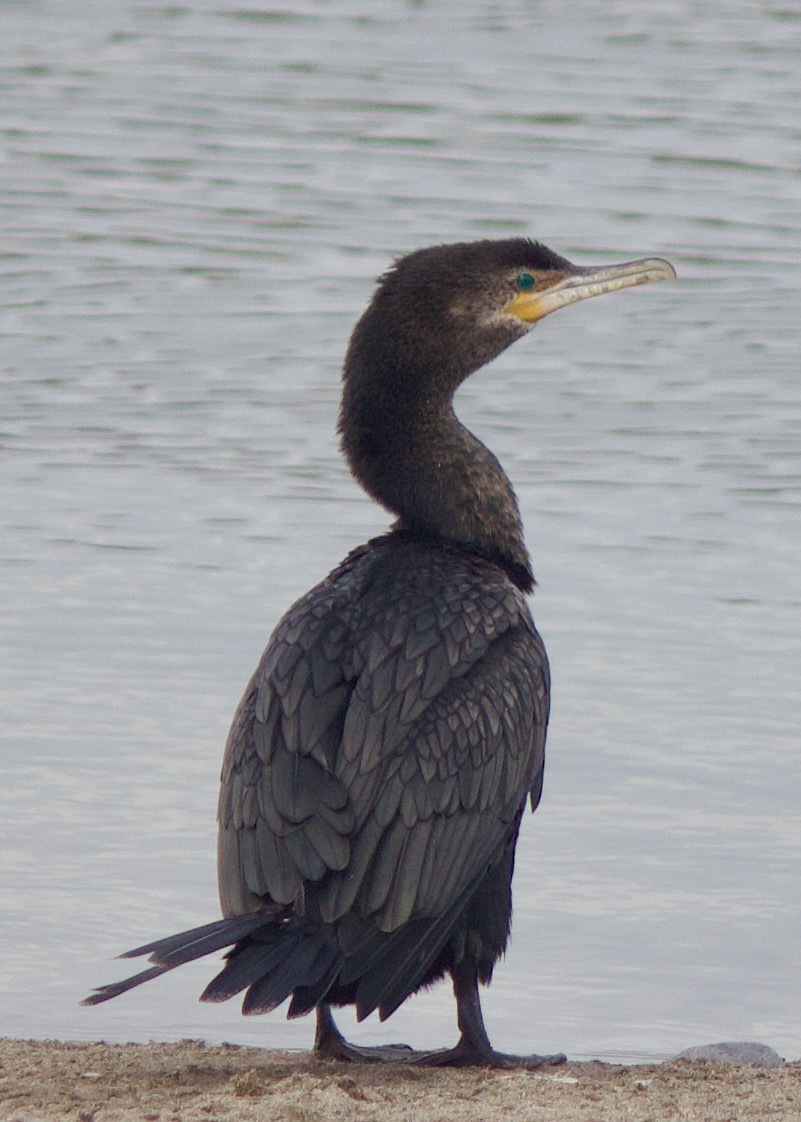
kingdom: Animalia
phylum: Chordata
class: Aves
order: Suliformes
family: Phalacrocoracidae
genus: Phalacrocorax
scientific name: Phalacrocorax brasilianus
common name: Neotropic cormorant
